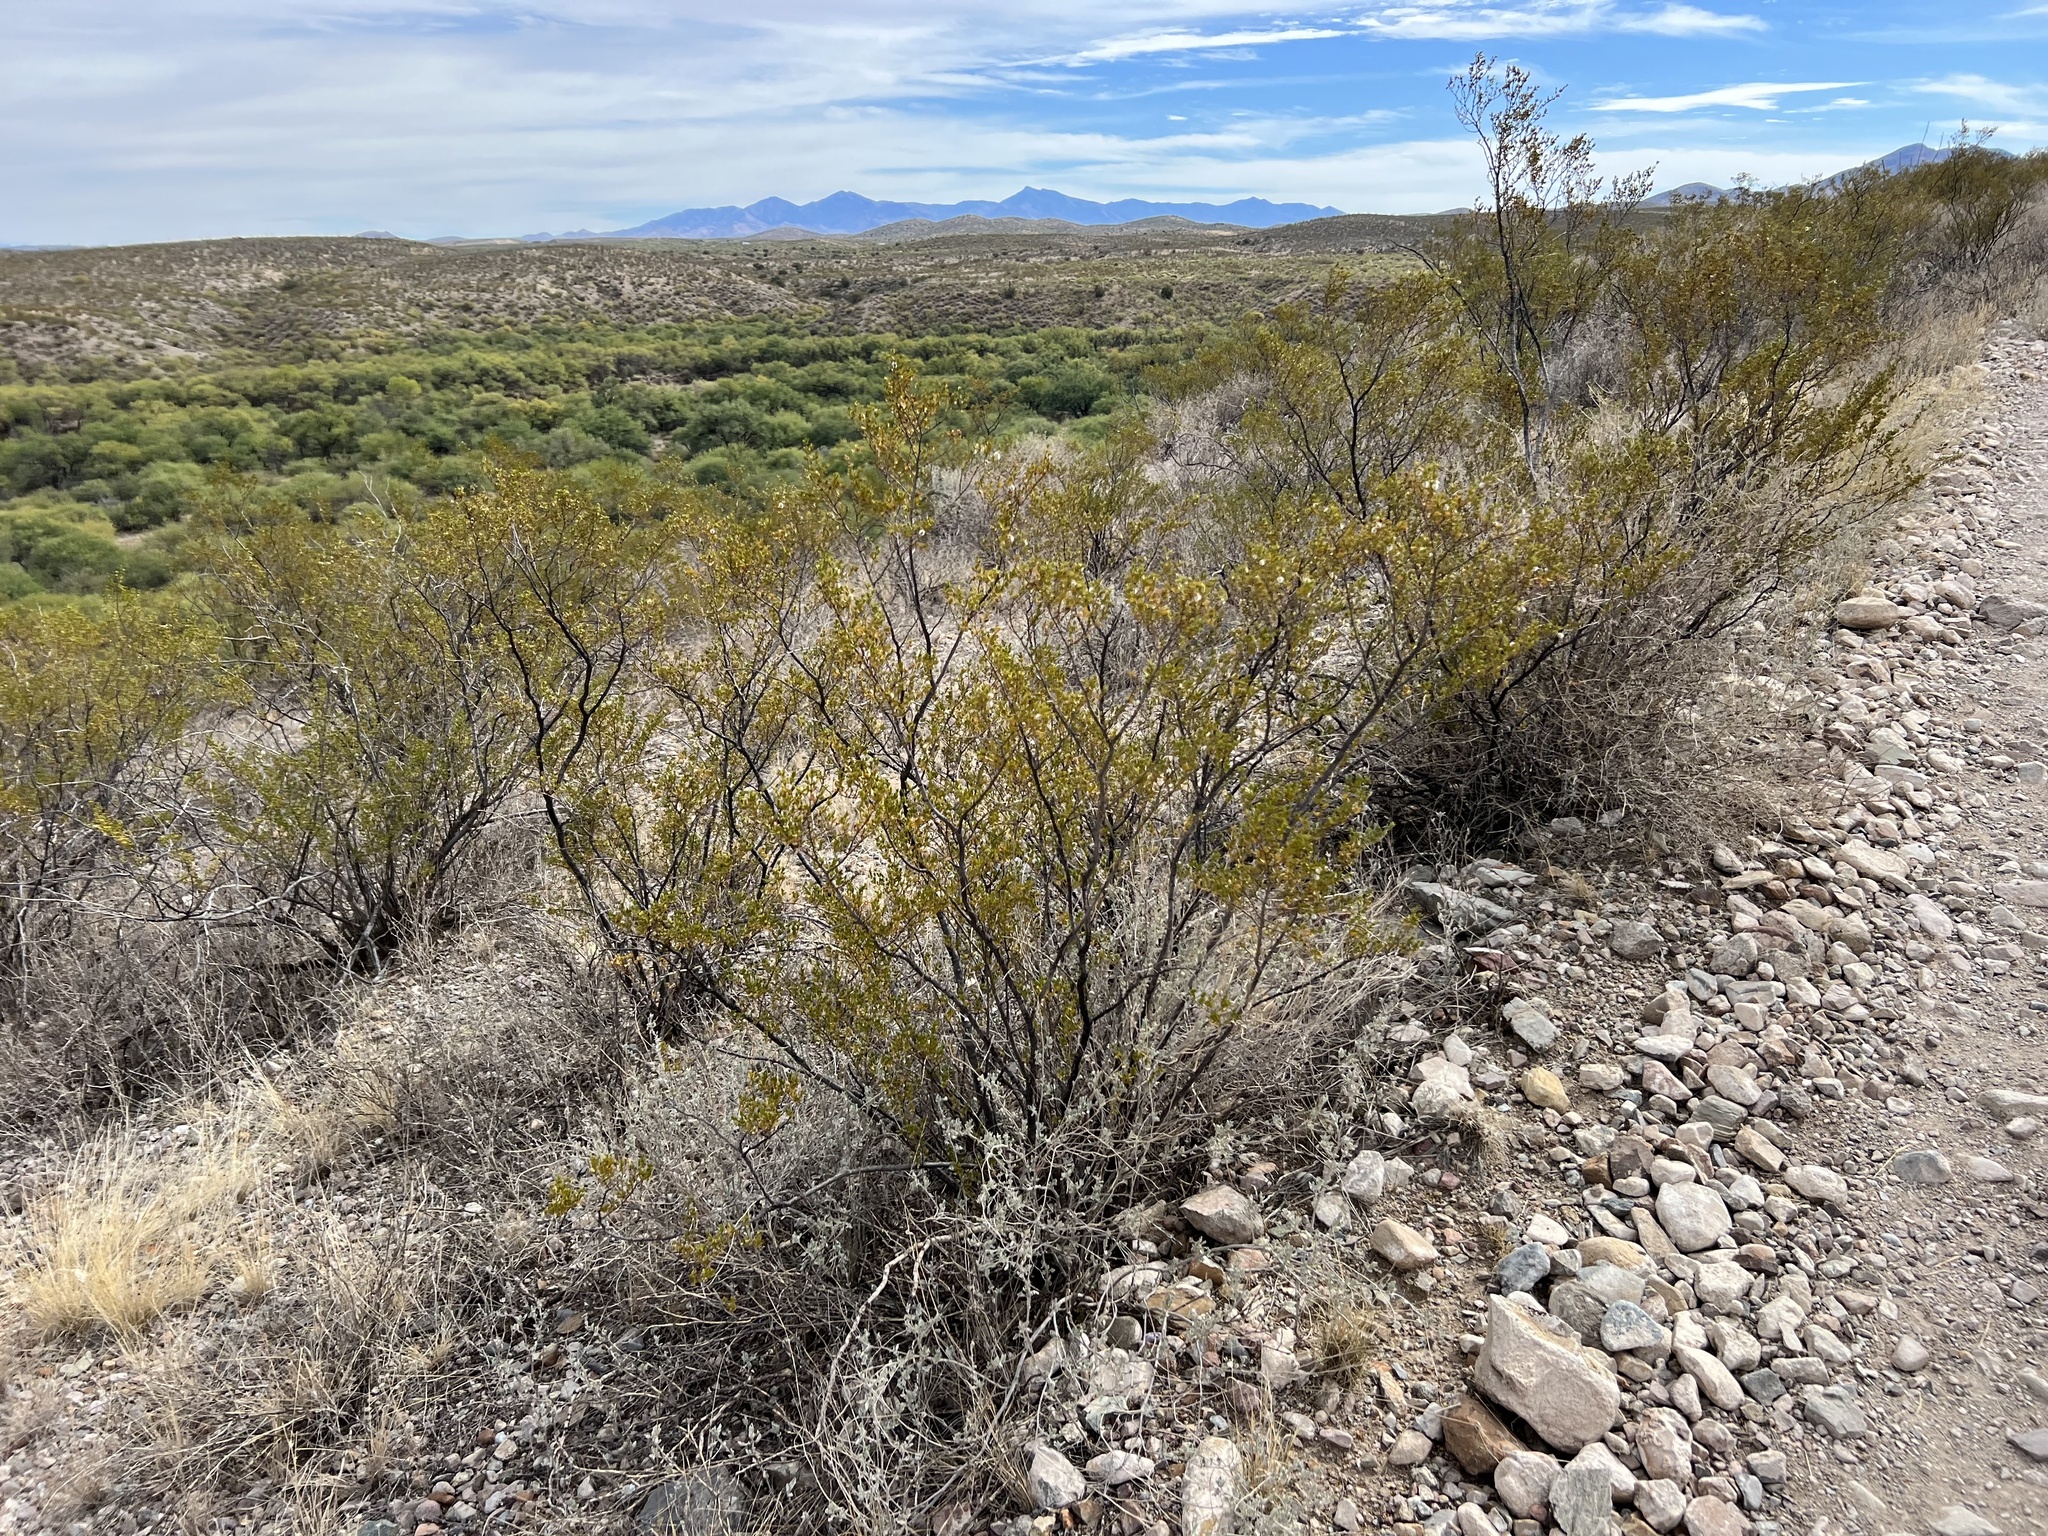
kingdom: Plantae
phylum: Tracheophyta
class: Magnoliopsida
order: Zygophyllales
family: Zygophyllaceae
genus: Larrea
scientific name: Larrea tridentata
